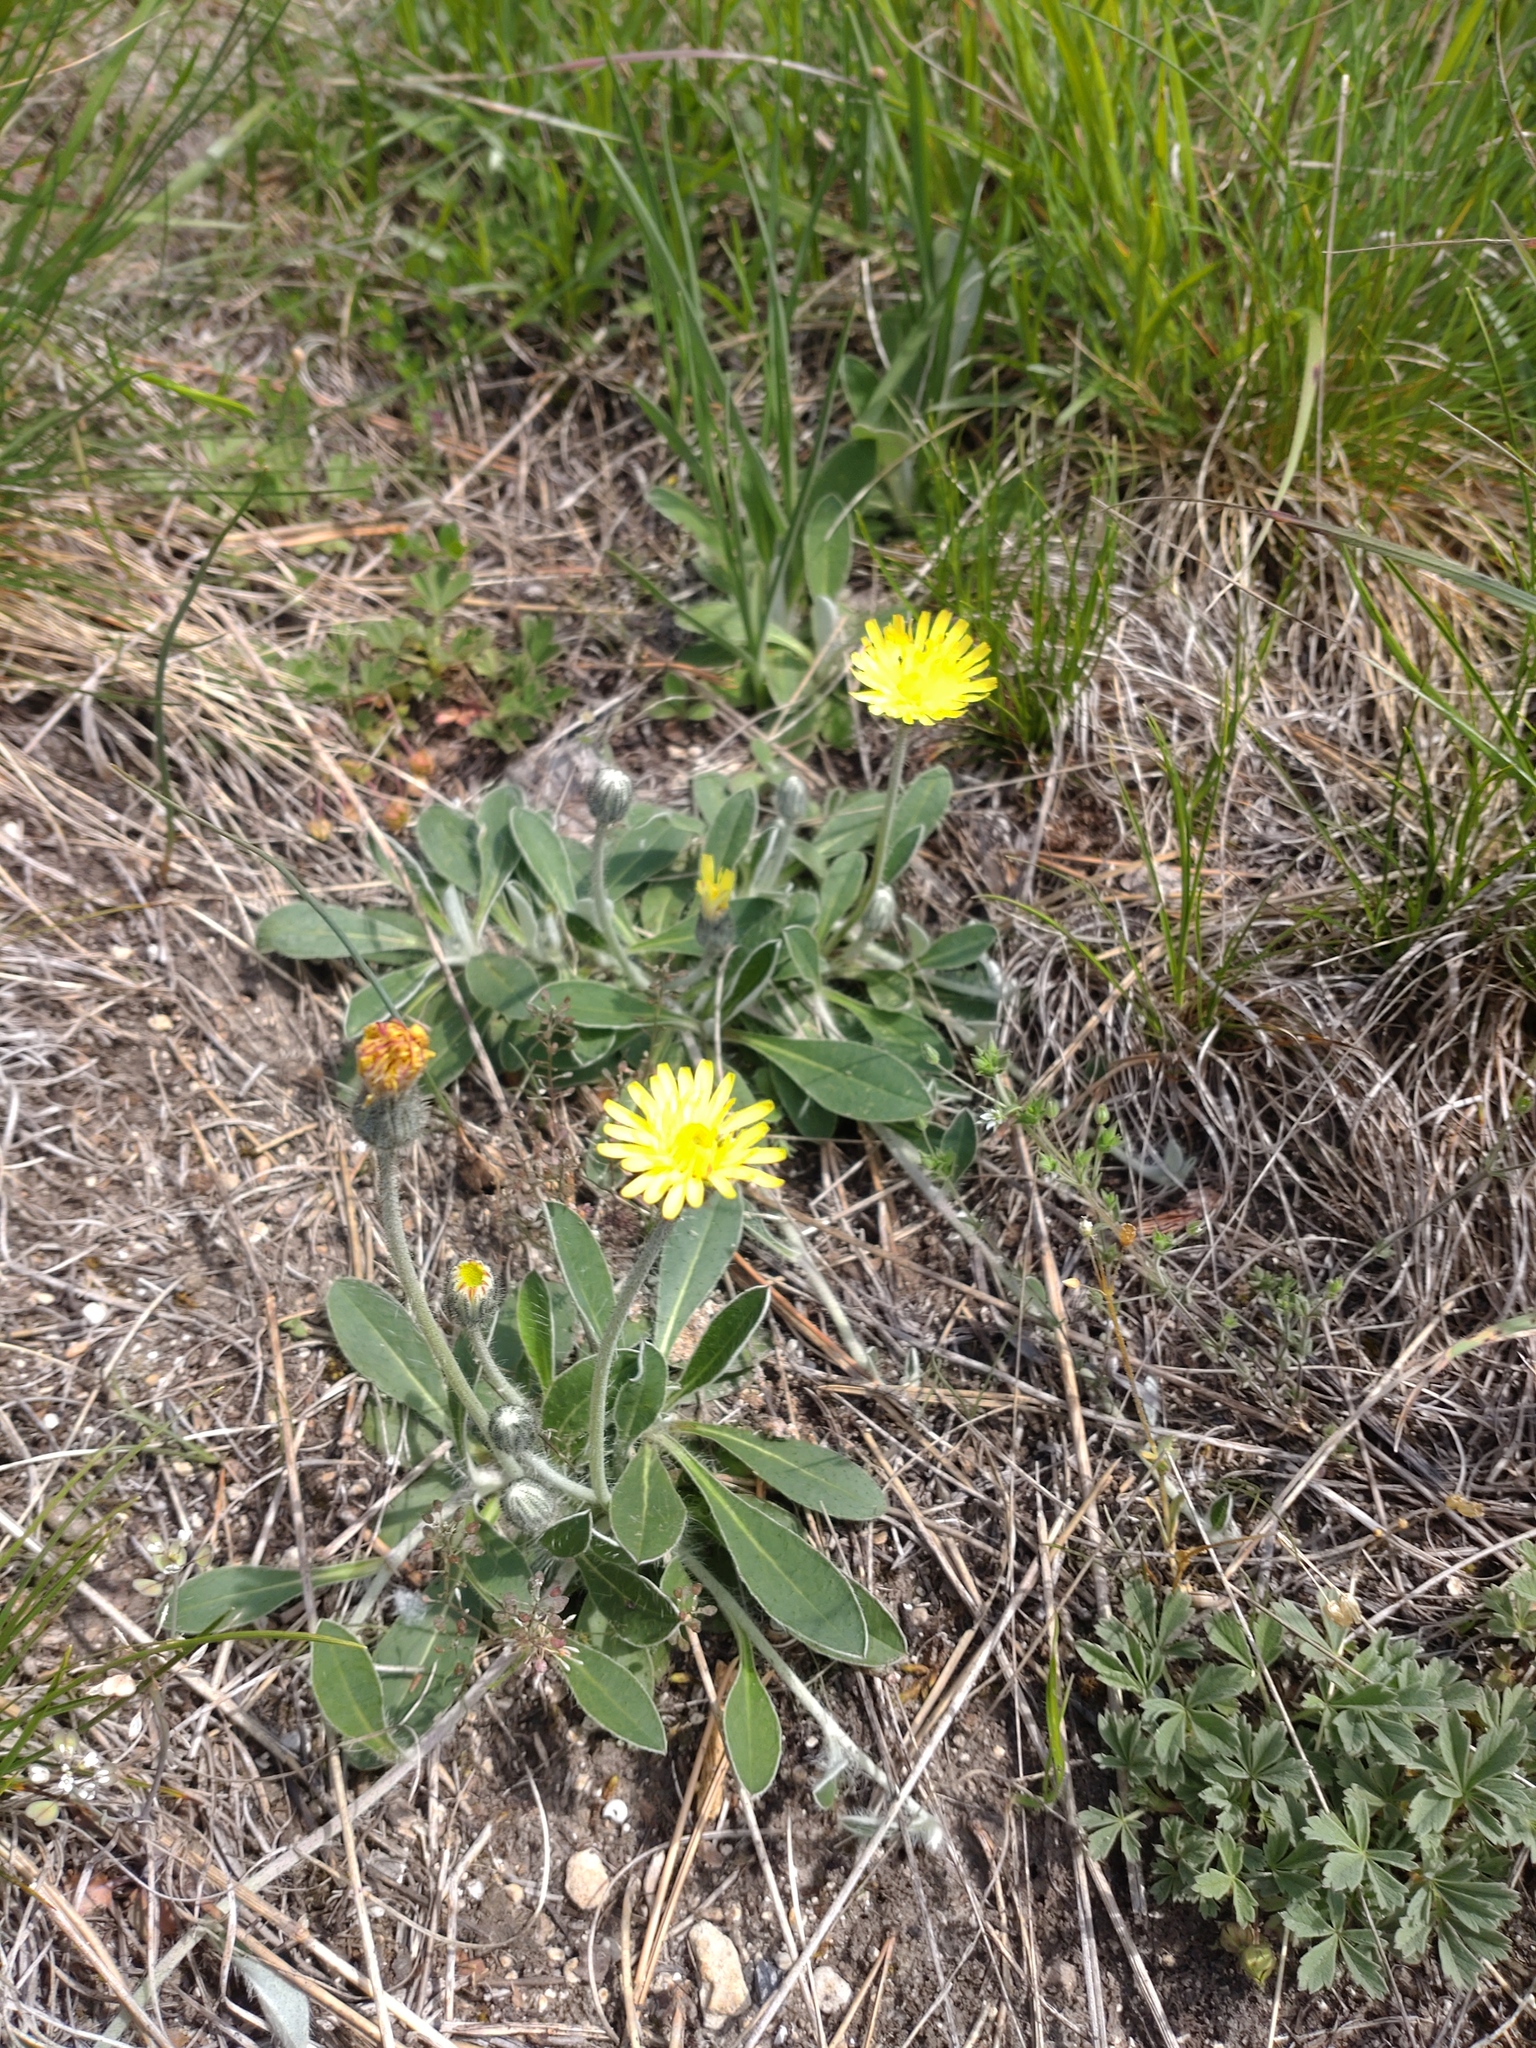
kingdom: Plantae
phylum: Tracheophyta
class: Magnoliopsida
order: Asterales
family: Asteraceae
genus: Pilosella
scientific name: Pilosella officinarum
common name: Mouse-ear hawkweed
